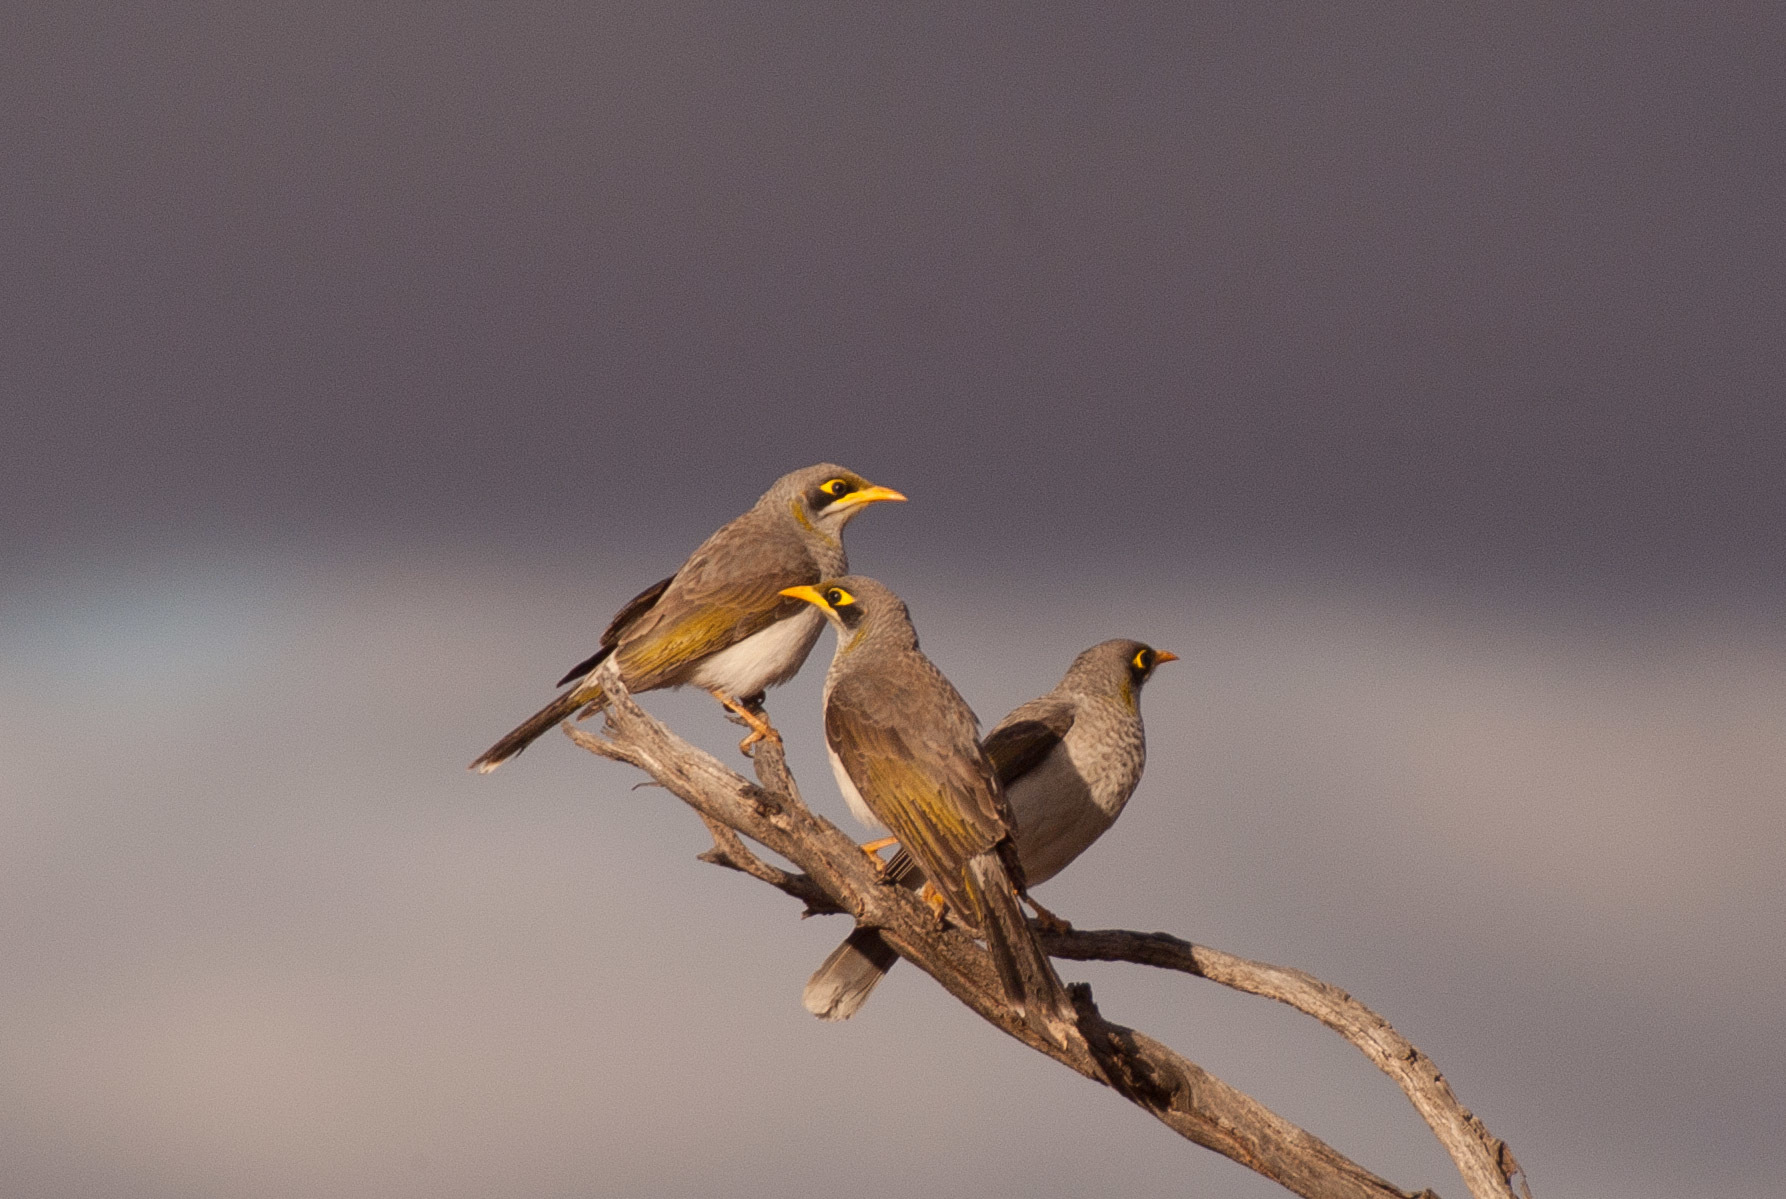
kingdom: Animalia
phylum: Chordata
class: Aves
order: Passeriformes
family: Meliphagidae
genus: Manorina
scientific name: Manorina flavigula
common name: Yellow-throated miner
